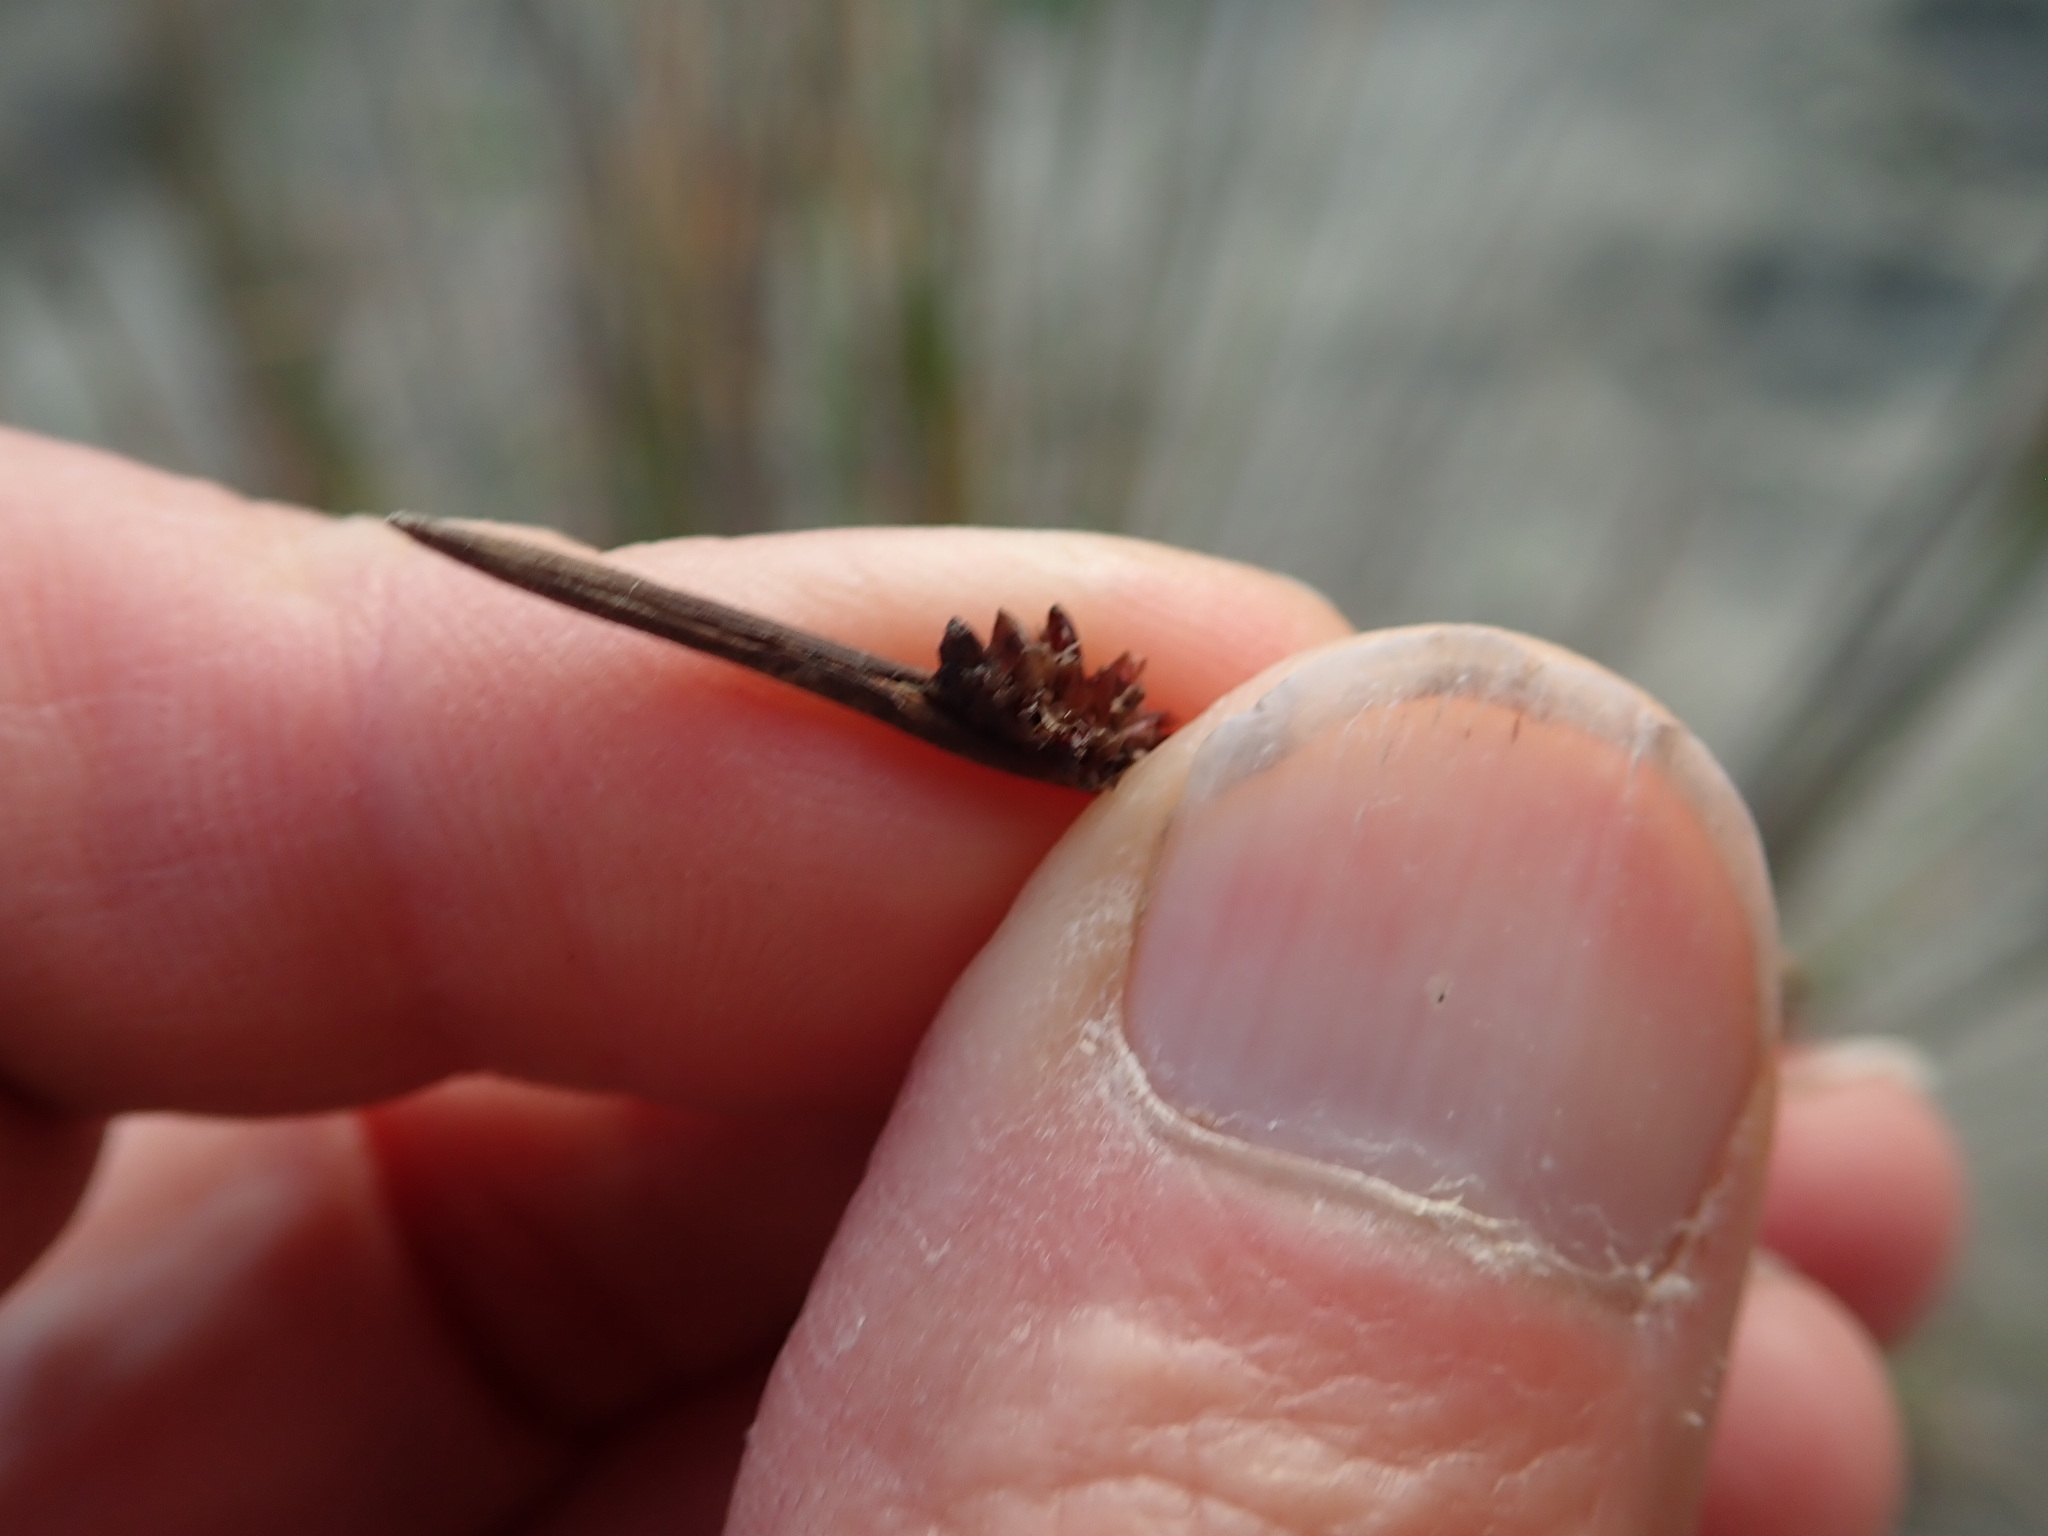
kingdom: Plantae
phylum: Tracheophyta
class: Liliopsida
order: Poales
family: Cyperaceae
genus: Ficinia
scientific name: Ficinia nodosa
